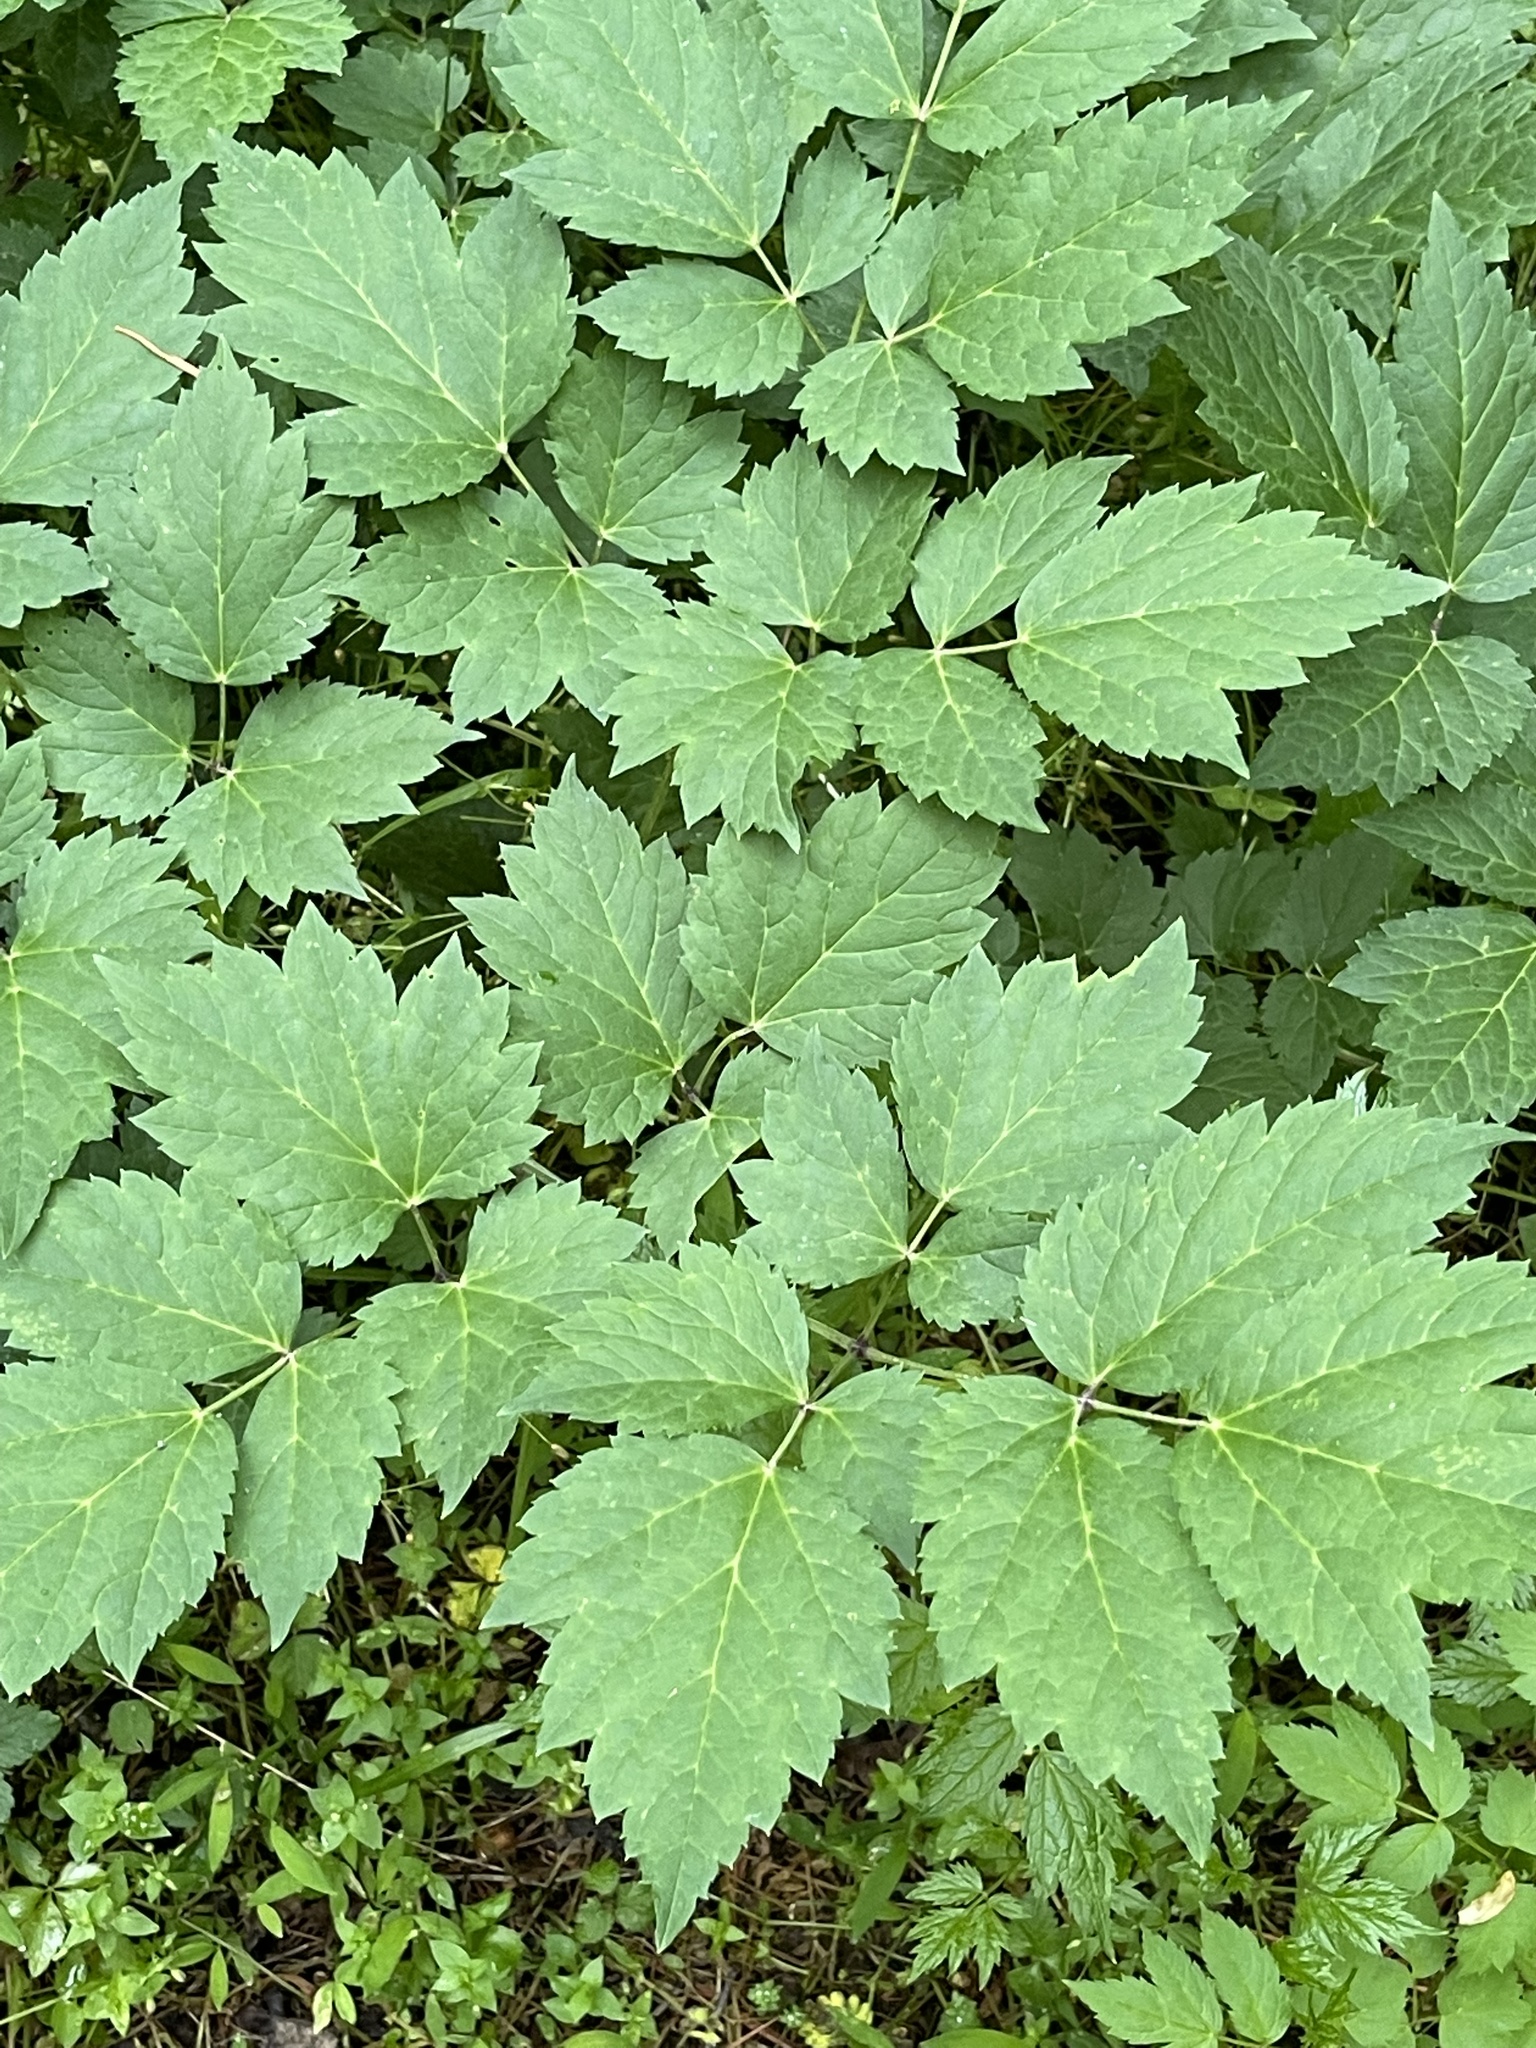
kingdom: Plantae
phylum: Tracheophyta
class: Magnoliopsida
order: Ranunculales
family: Ranunculaceae
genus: Actaea
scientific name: Actaea racemosa
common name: Black cohosh
